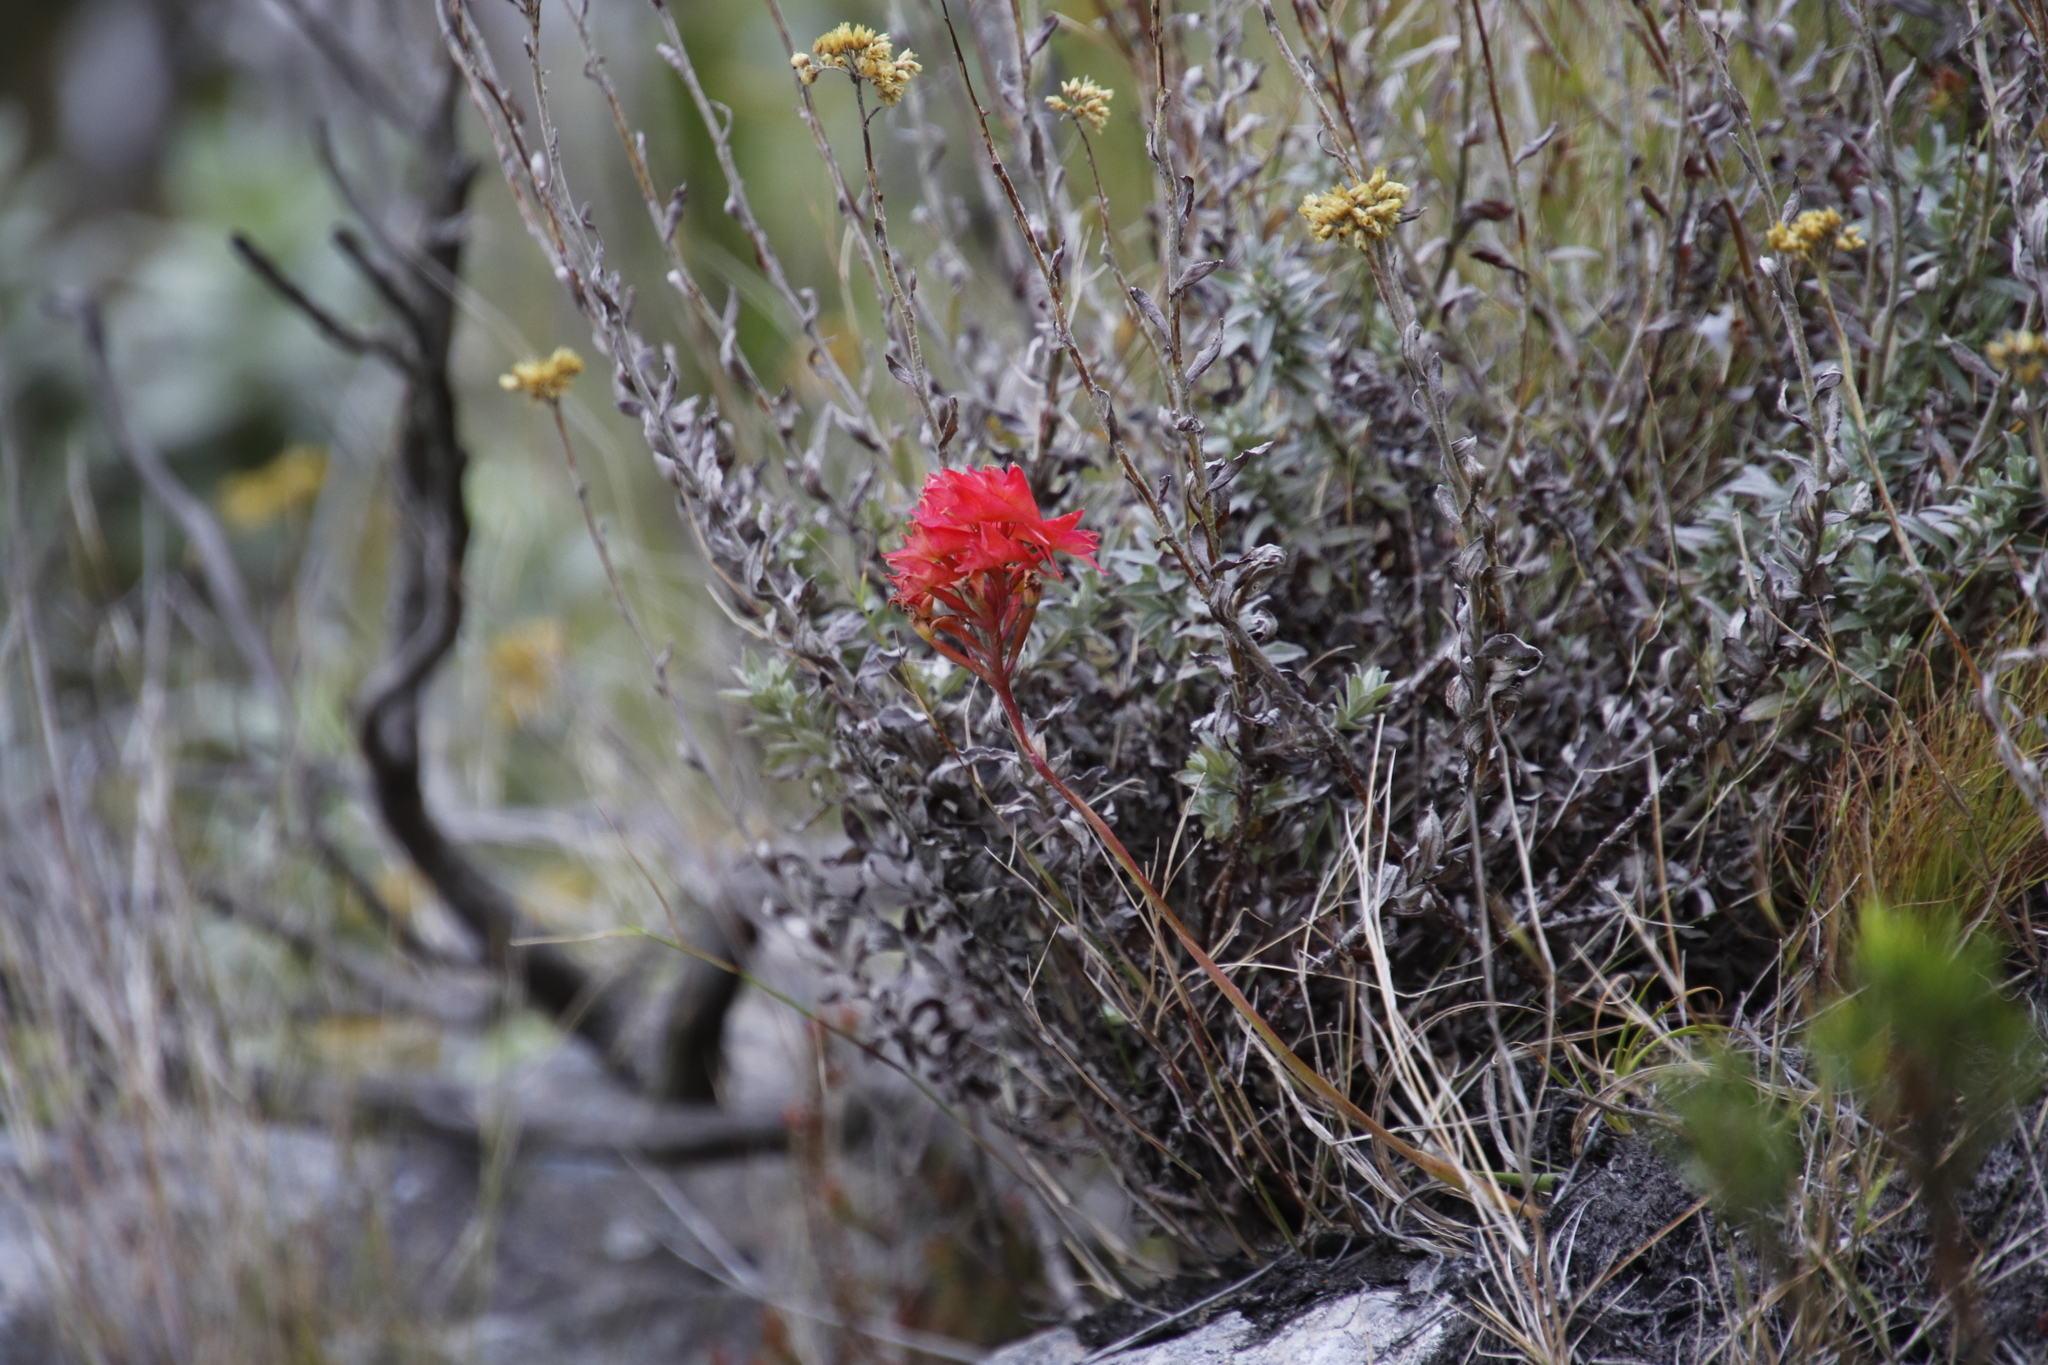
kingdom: Plantae
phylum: Tracheophyta
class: Liliopsida
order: Asparagales
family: Orchidaceae
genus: Disa
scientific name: Disa ferruginea
